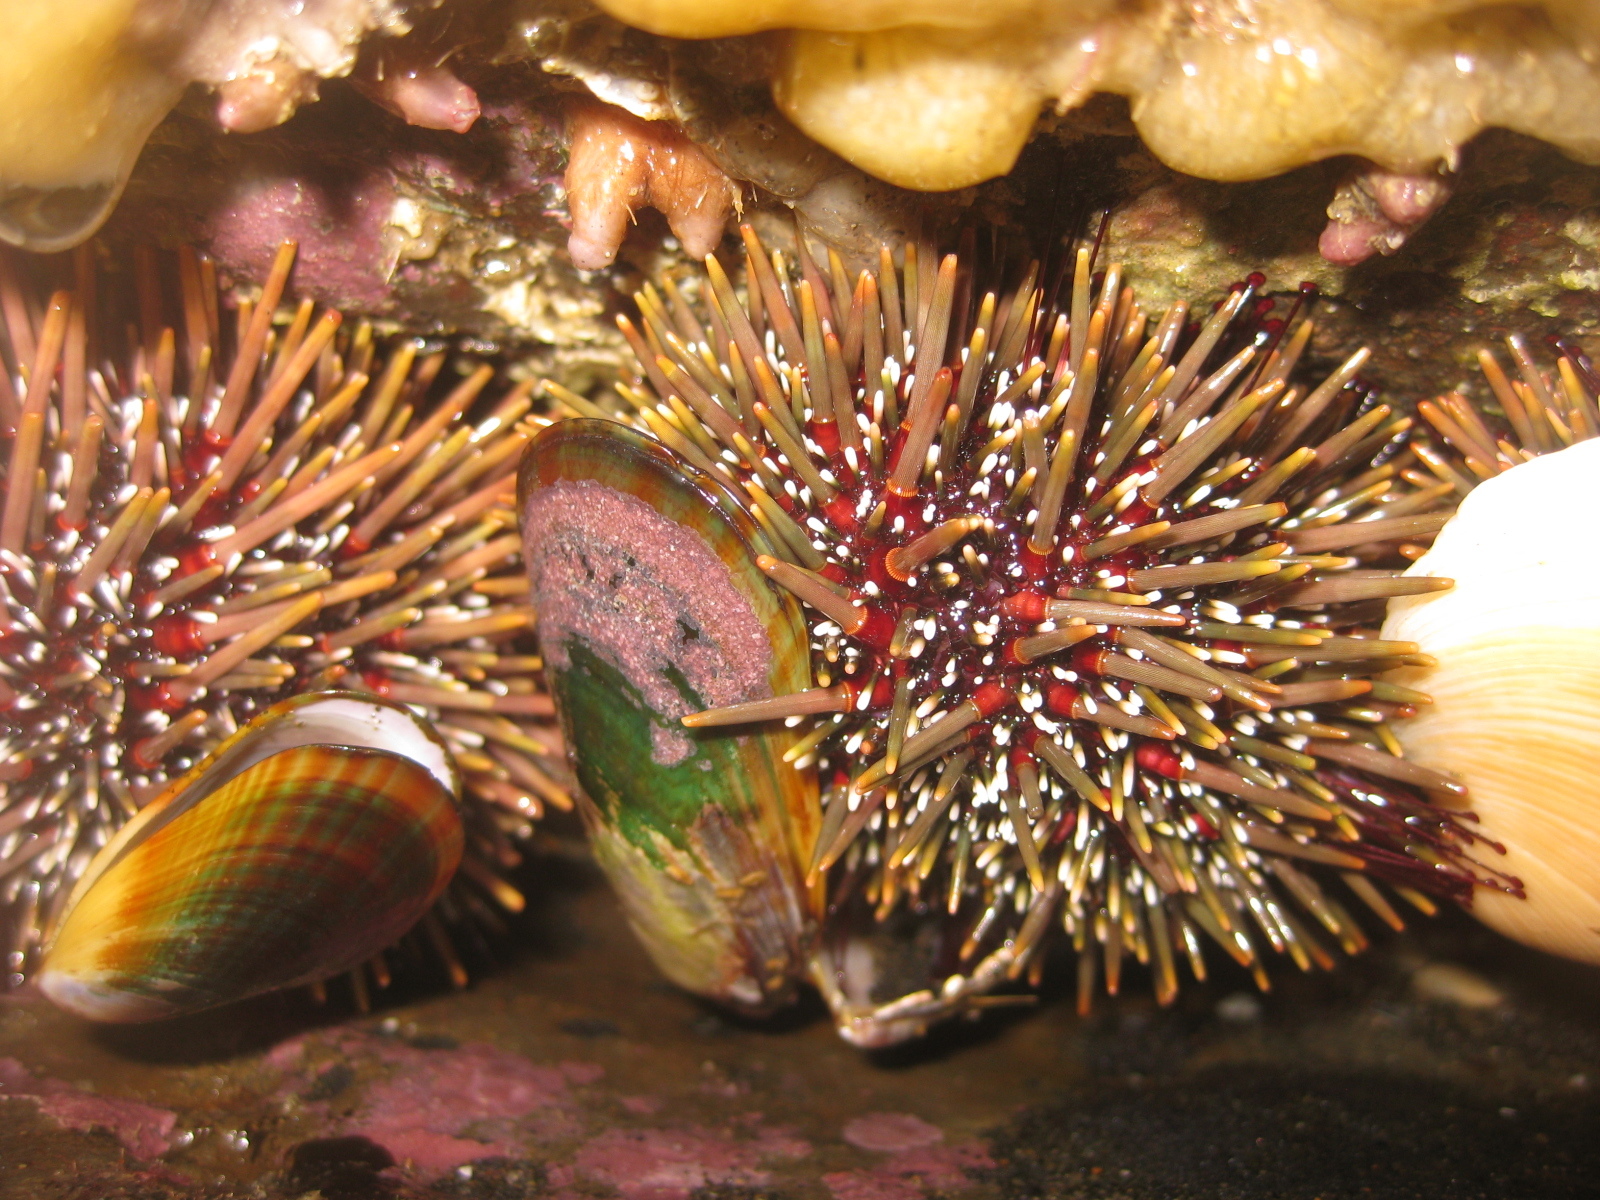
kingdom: Animalia
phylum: Echinodermata
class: Echinoidea
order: Camarodonta
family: Echinometridae
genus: Evechinus
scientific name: Evechinus chloroticus
